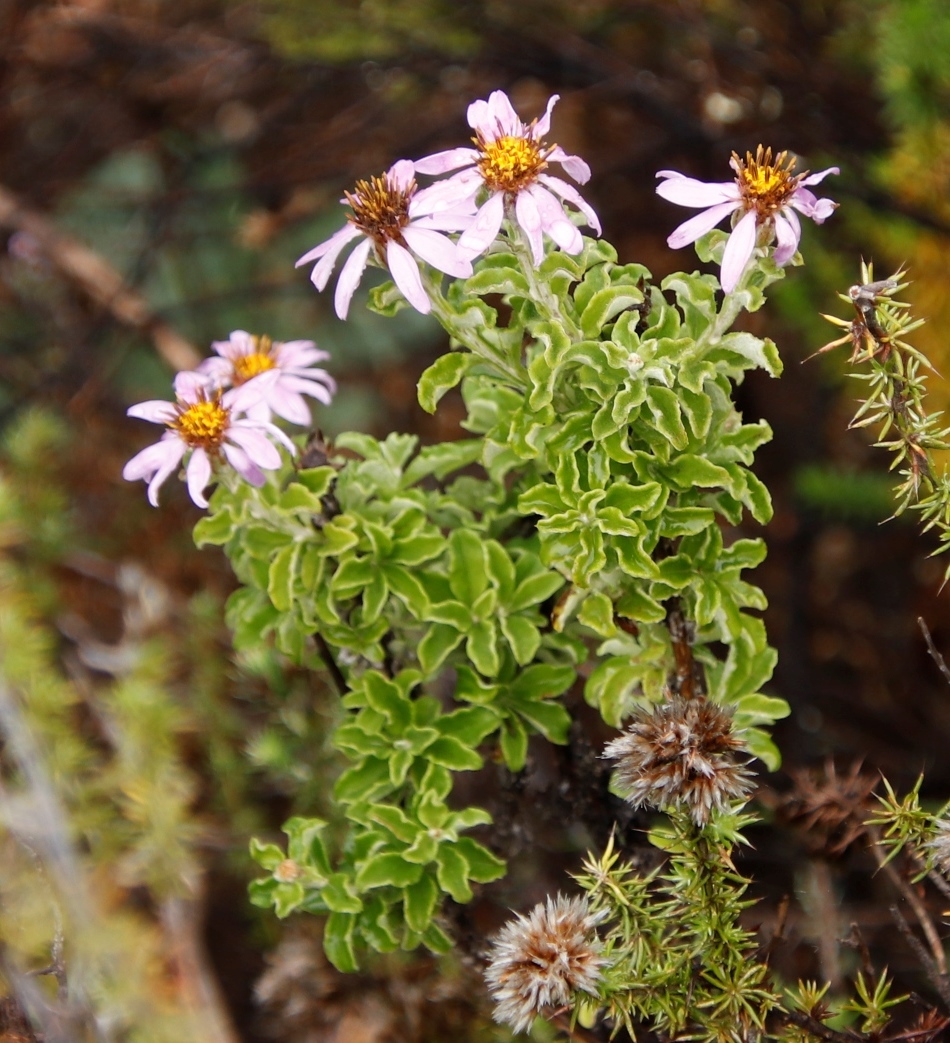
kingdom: Plantae
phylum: Tracheophyta
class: Magnoliopsida
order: Asterales
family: Asteraceae
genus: Printzia
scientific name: Printzia polifolia
